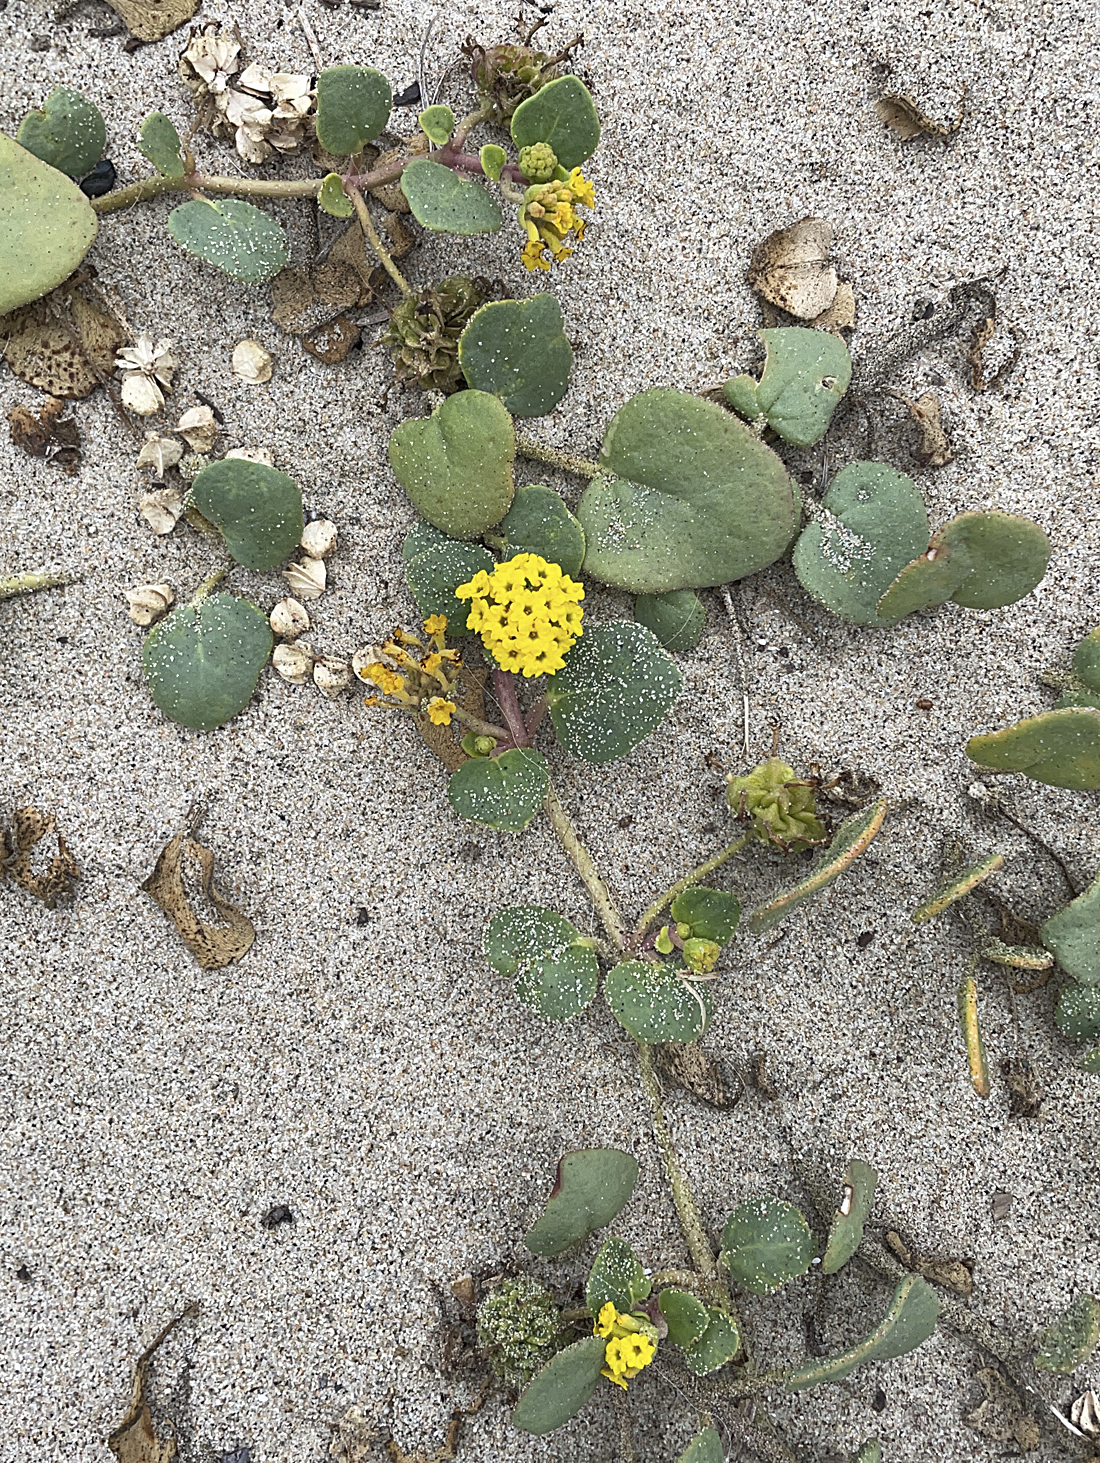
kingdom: Plantae
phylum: Tracheophyta
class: Magnoliopsida
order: Caryophyllales
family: Nyctaginaceae
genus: Abronia
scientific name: Abronia latifolia
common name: Yellow sand-verbena
